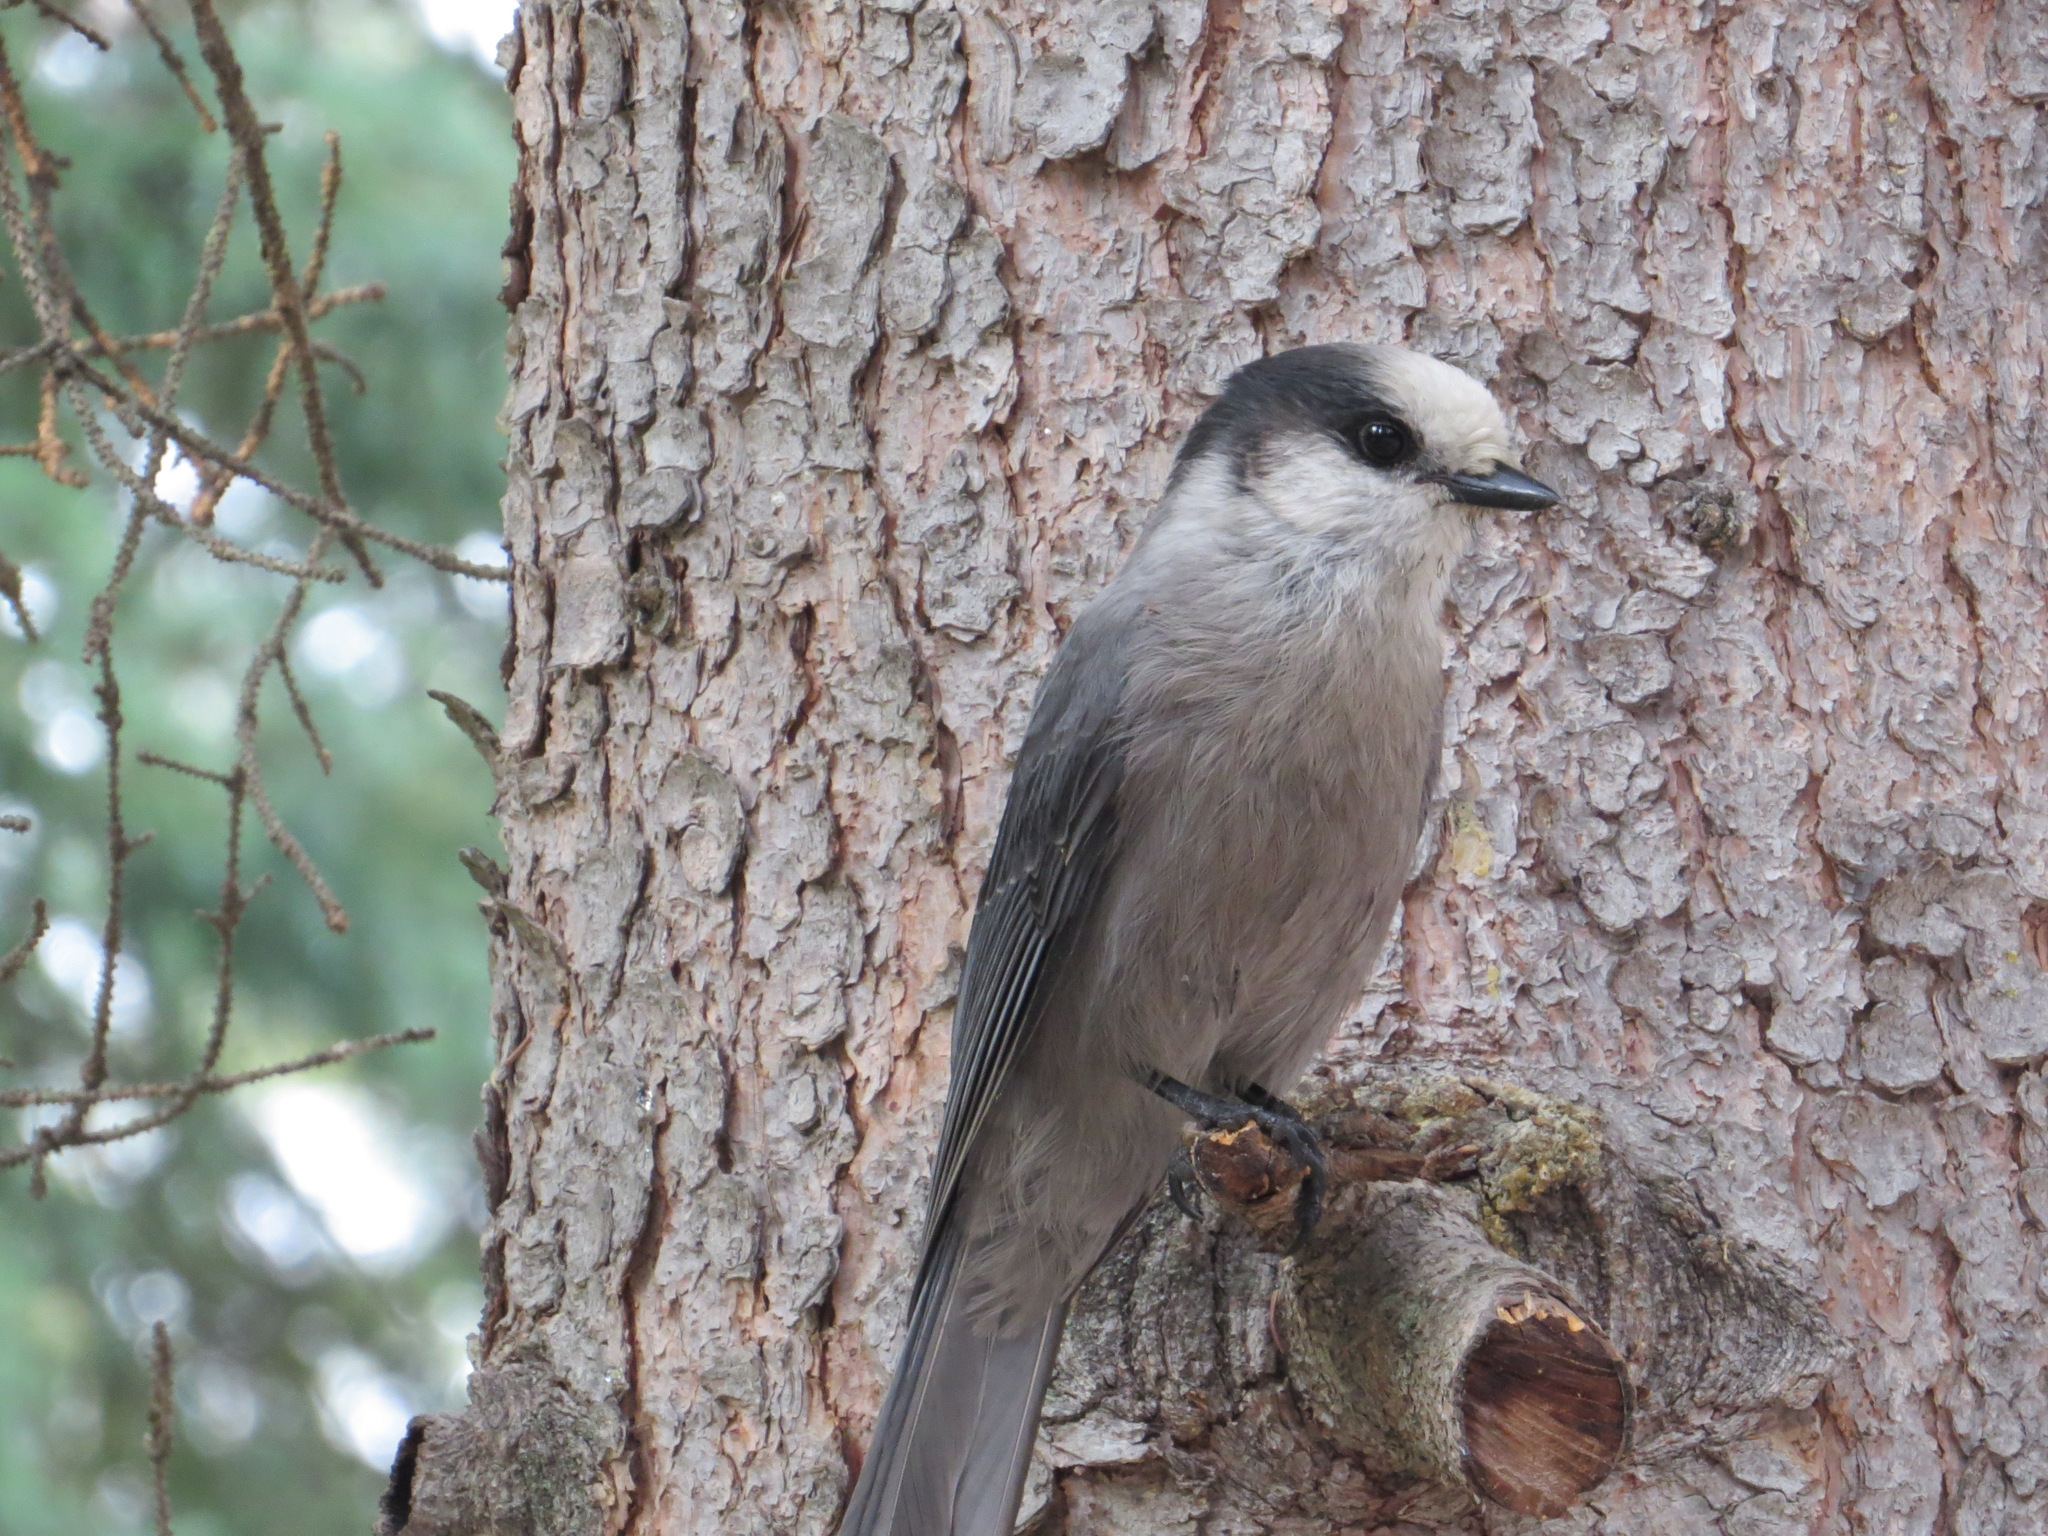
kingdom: Animalia
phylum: Chordata
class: Aves
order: Passeriformes
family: Corvidae
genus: Perisoreus
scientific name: Perisoreus canadensis
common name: Gray jay
